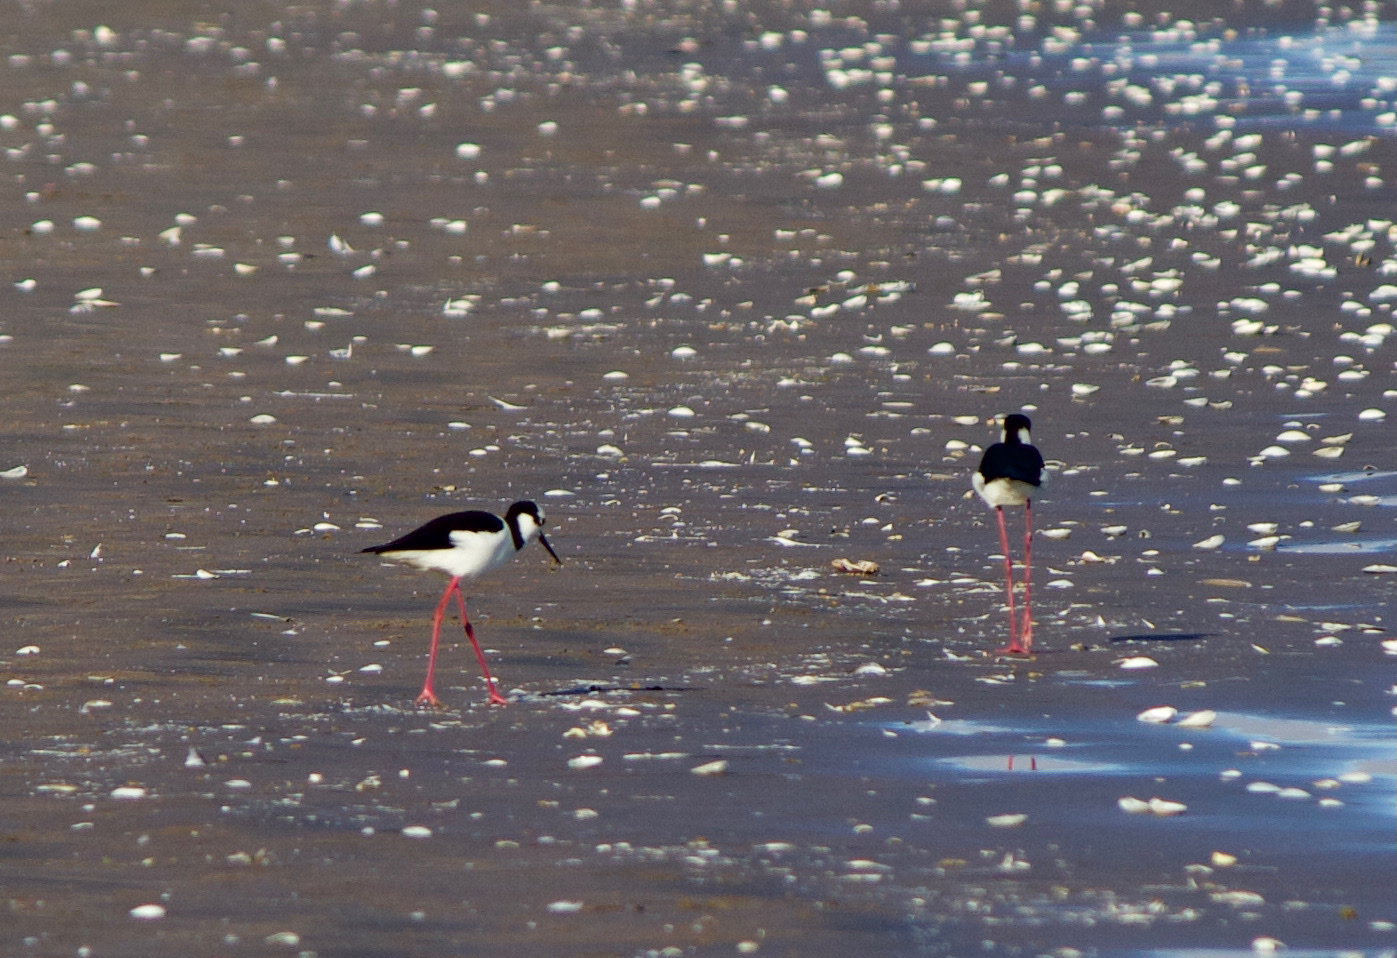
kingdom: Animalia
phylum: Chordata
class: Aves
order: Charadriiformes
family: Recurvirostridae
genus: Himantopus
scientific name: Himantopus mexicanus
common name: Black-necked stilt
